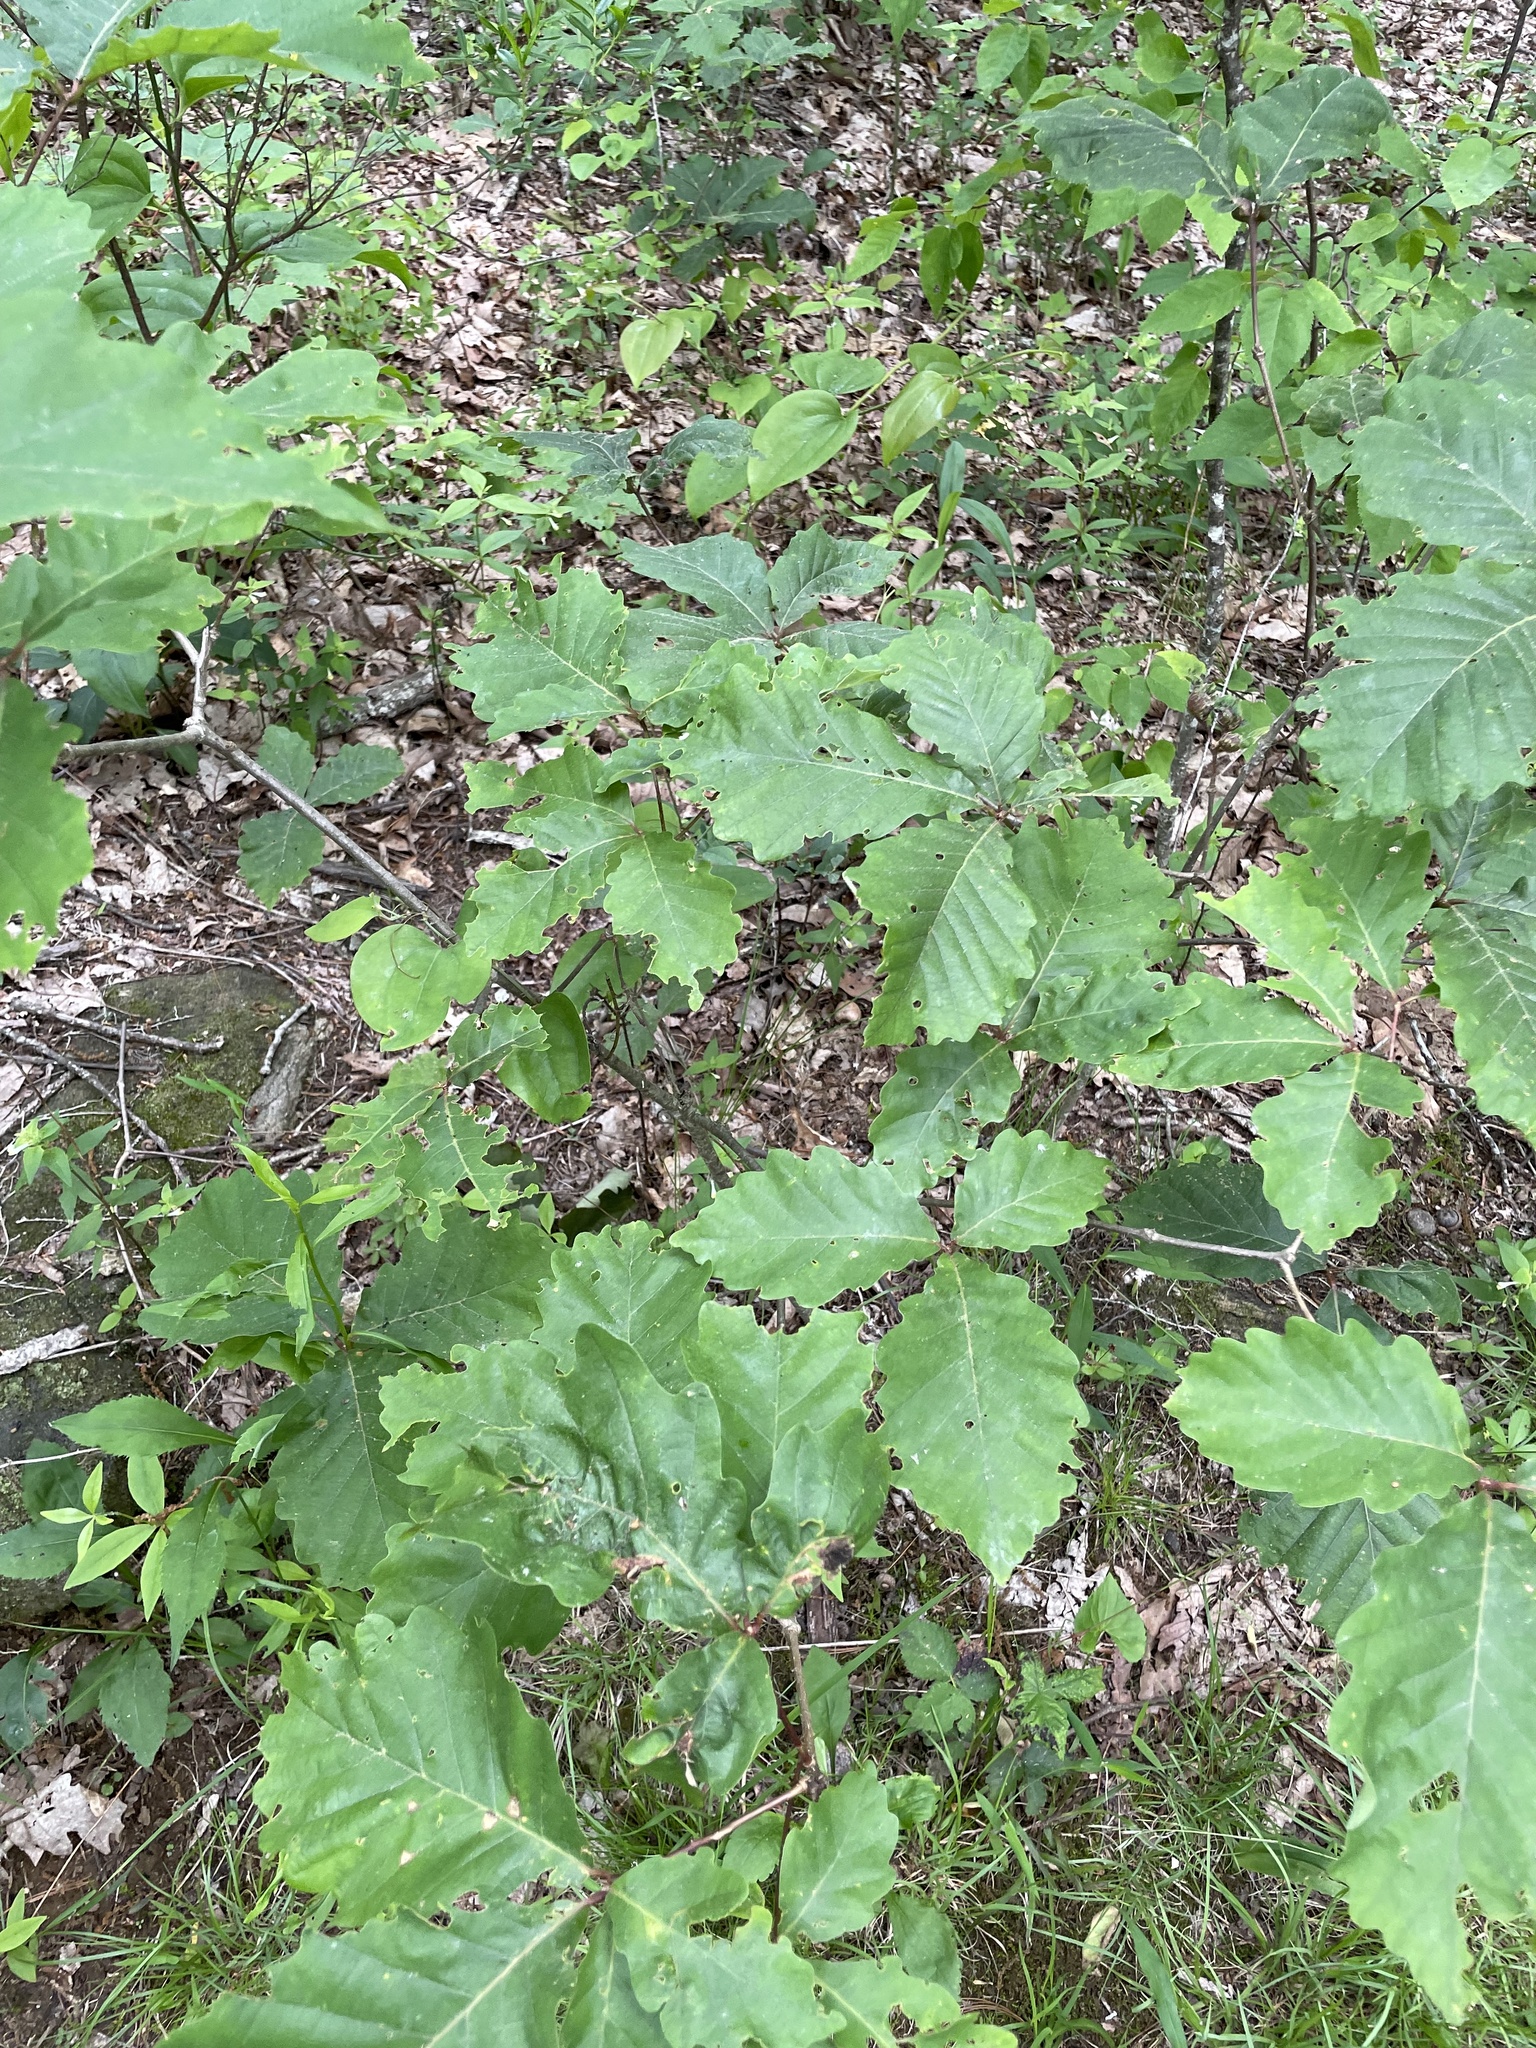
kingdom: Plantae
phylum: Tracheophyta
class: Magnoliopsida
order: Fagales
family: Fagaceae
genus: Quercus
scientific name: Quercus montana
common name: Chestnut oak
